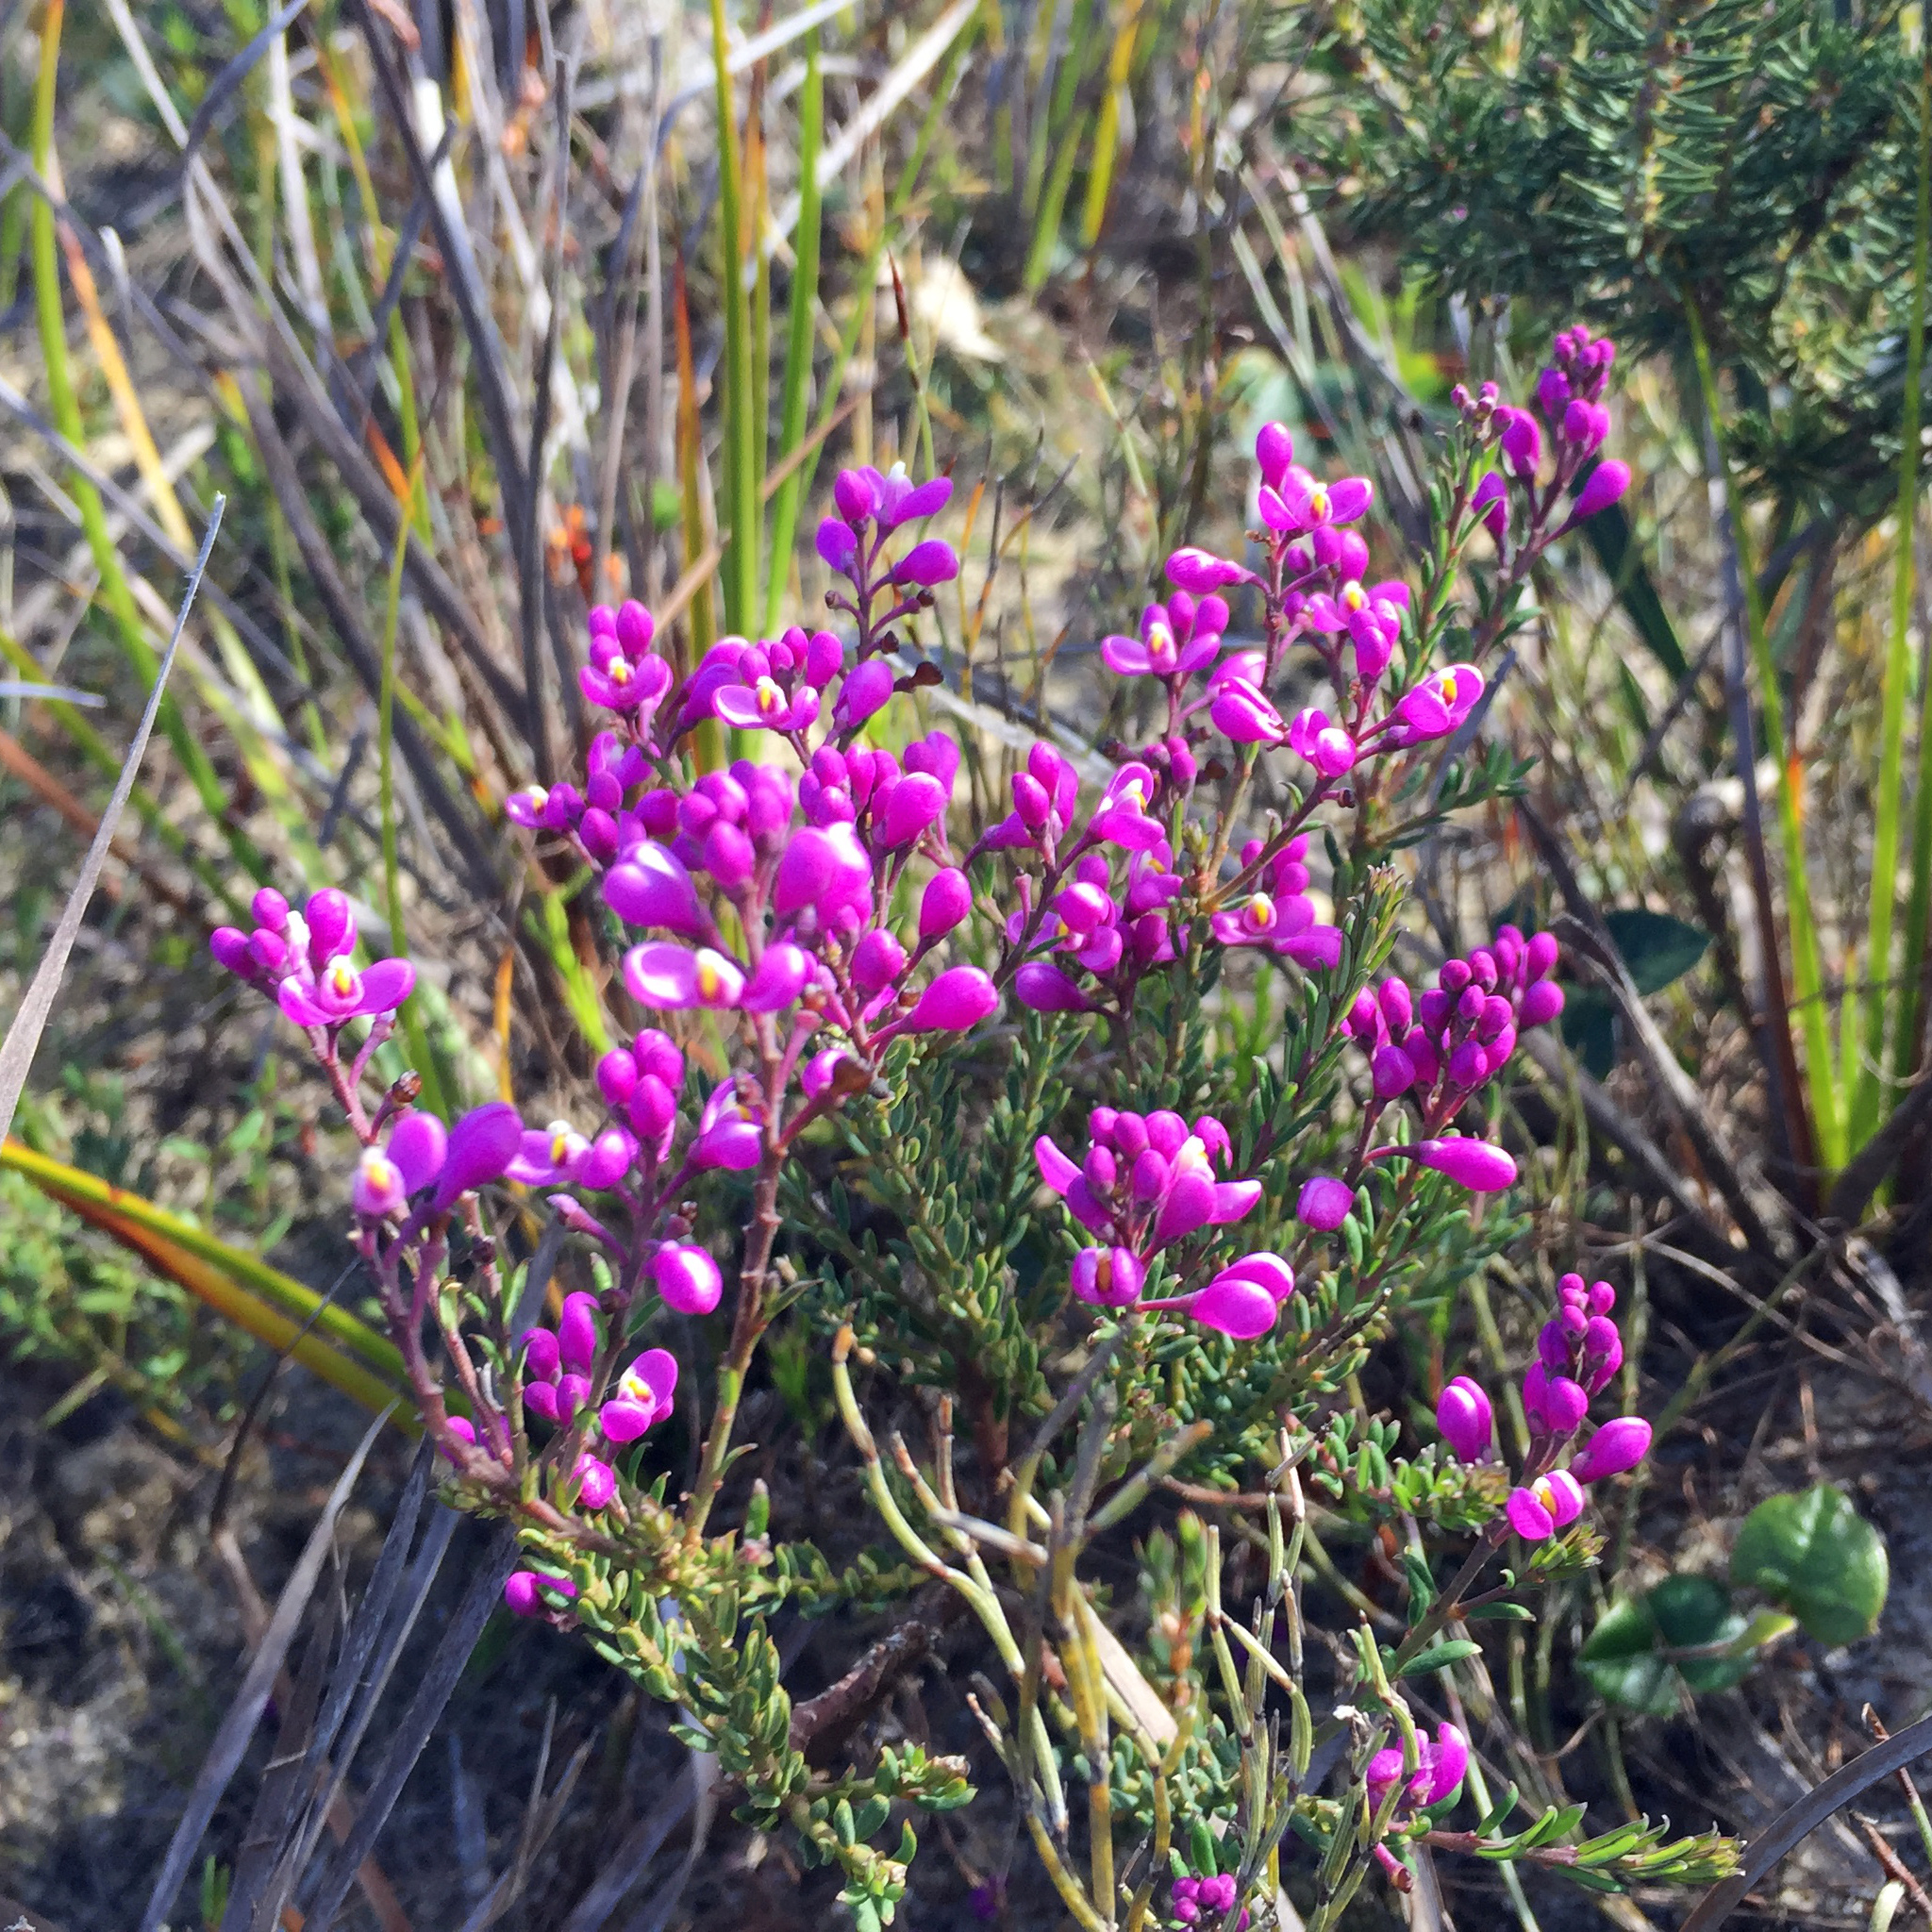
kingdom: Plantae
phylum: Tracheophyta
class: Magnoliopsida
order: Fabales
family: Polygalaceae
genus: Comesperma
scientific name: Comesperma ericinum
